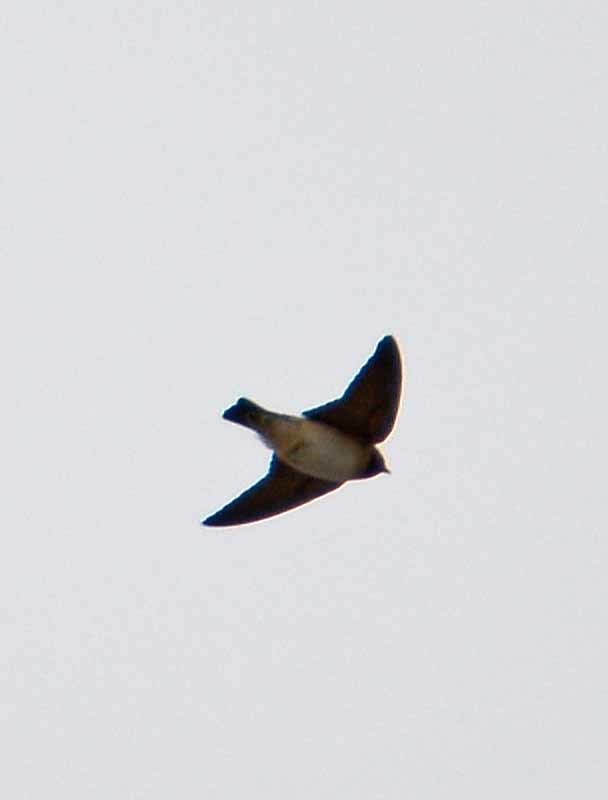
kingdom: Animalia
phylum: Chordata
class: Aves
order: Passeriformes
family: Hirundinidae
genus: Petrochelidon
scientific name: Petrochelidon pyrrhonota
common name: American cliff swallow
